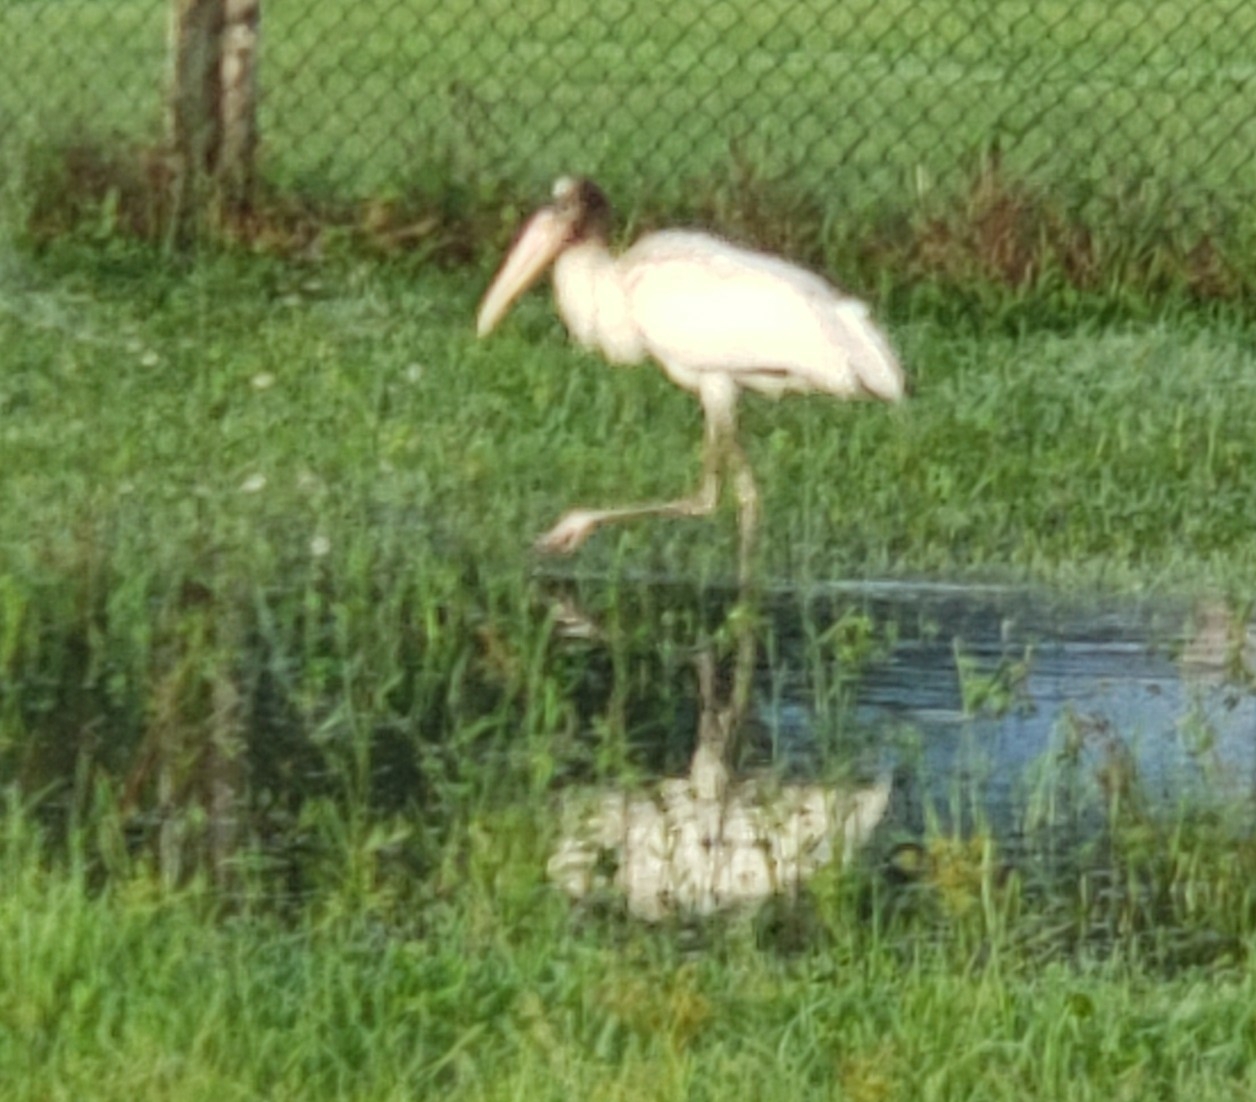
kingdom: Animalia
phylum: Chordata
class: Aves
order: Ciconiiformes
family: Ciconiidae
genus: Mycteria
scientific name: Mycteria americana
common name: Wood stork
